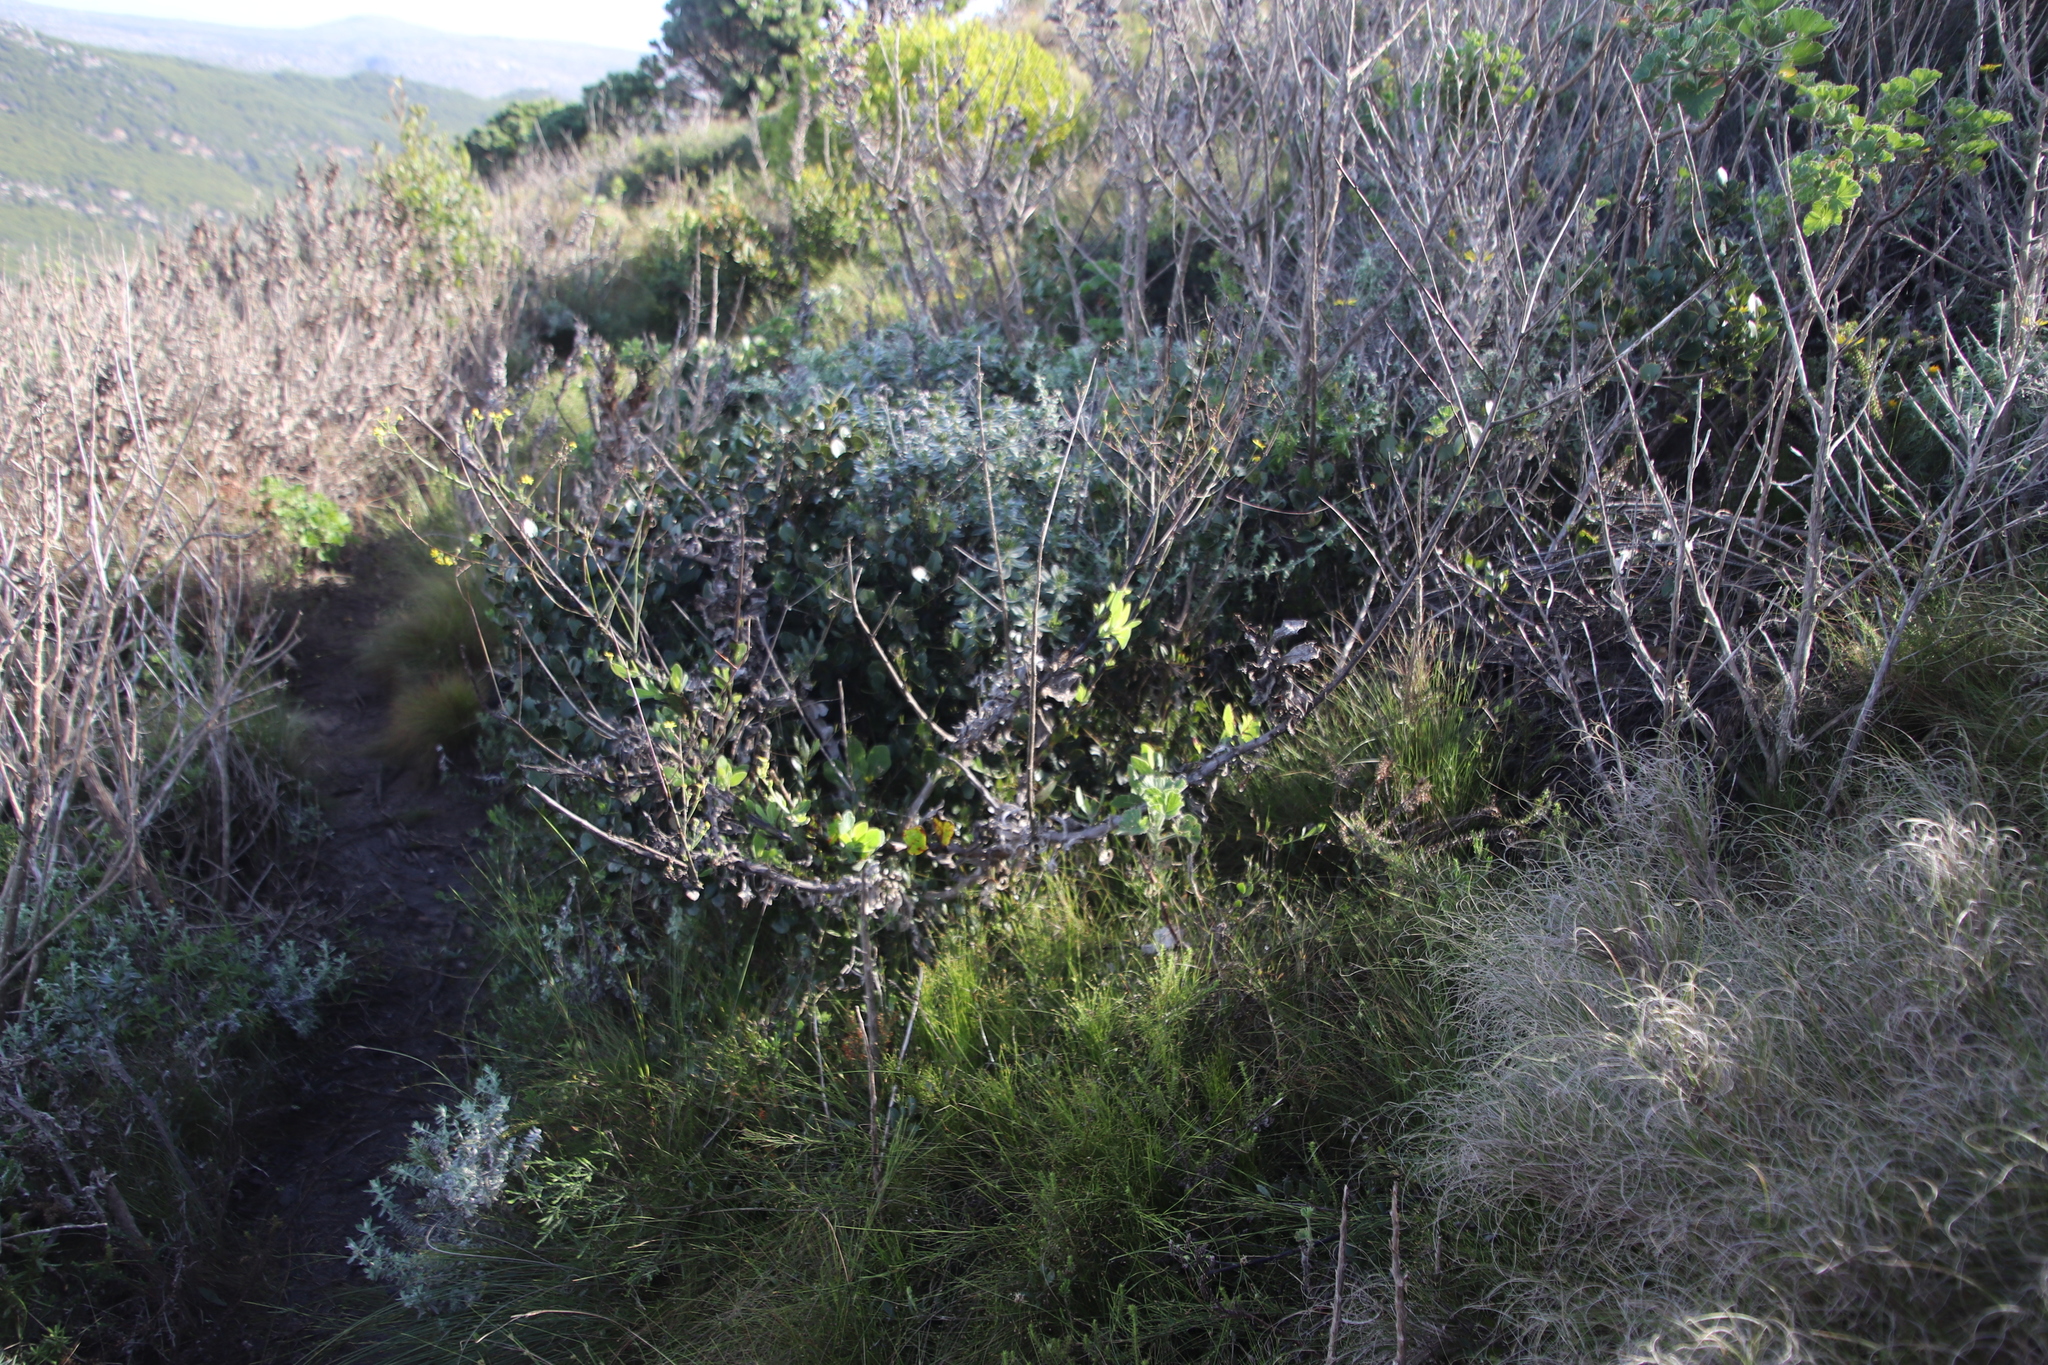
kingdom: Plantae
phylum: Tracheophyta
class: Magnoliopsida
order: Asterales
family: Asteraceae
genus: Othonna
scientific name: Othonna quinquedentata
